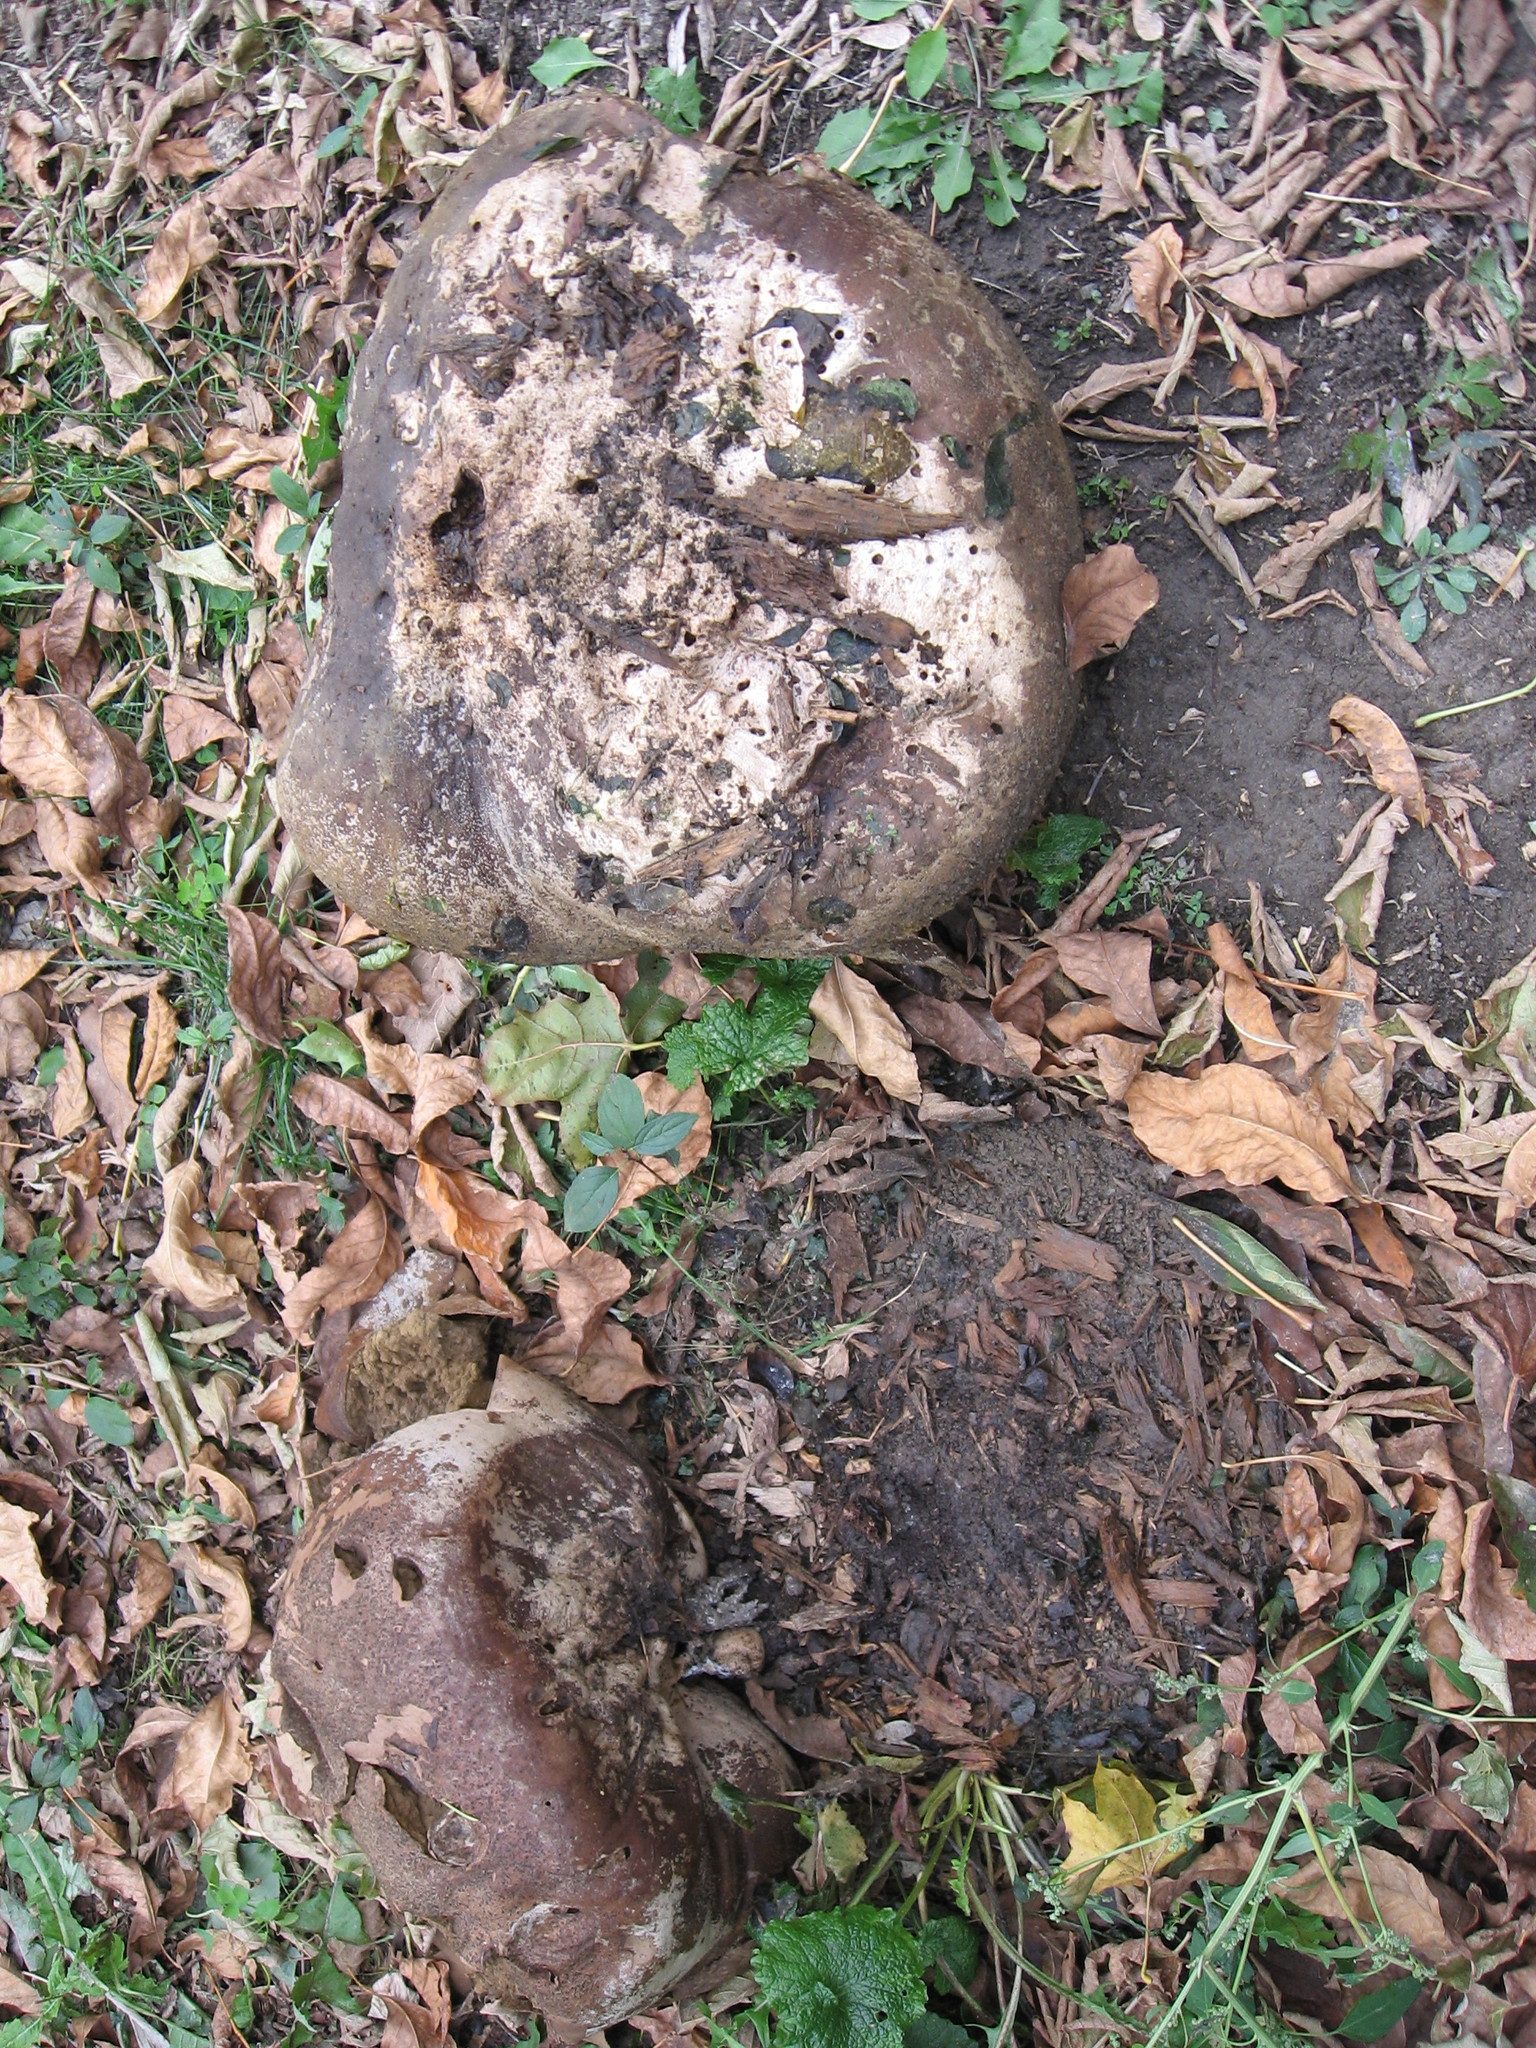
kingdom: Fungi
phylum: Basidiomycota
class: Agaricomycetes
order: Agaricales
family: Lycoperdaceae
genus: Calvatia
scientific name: Calvatia gigantea
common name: Giant puffball
